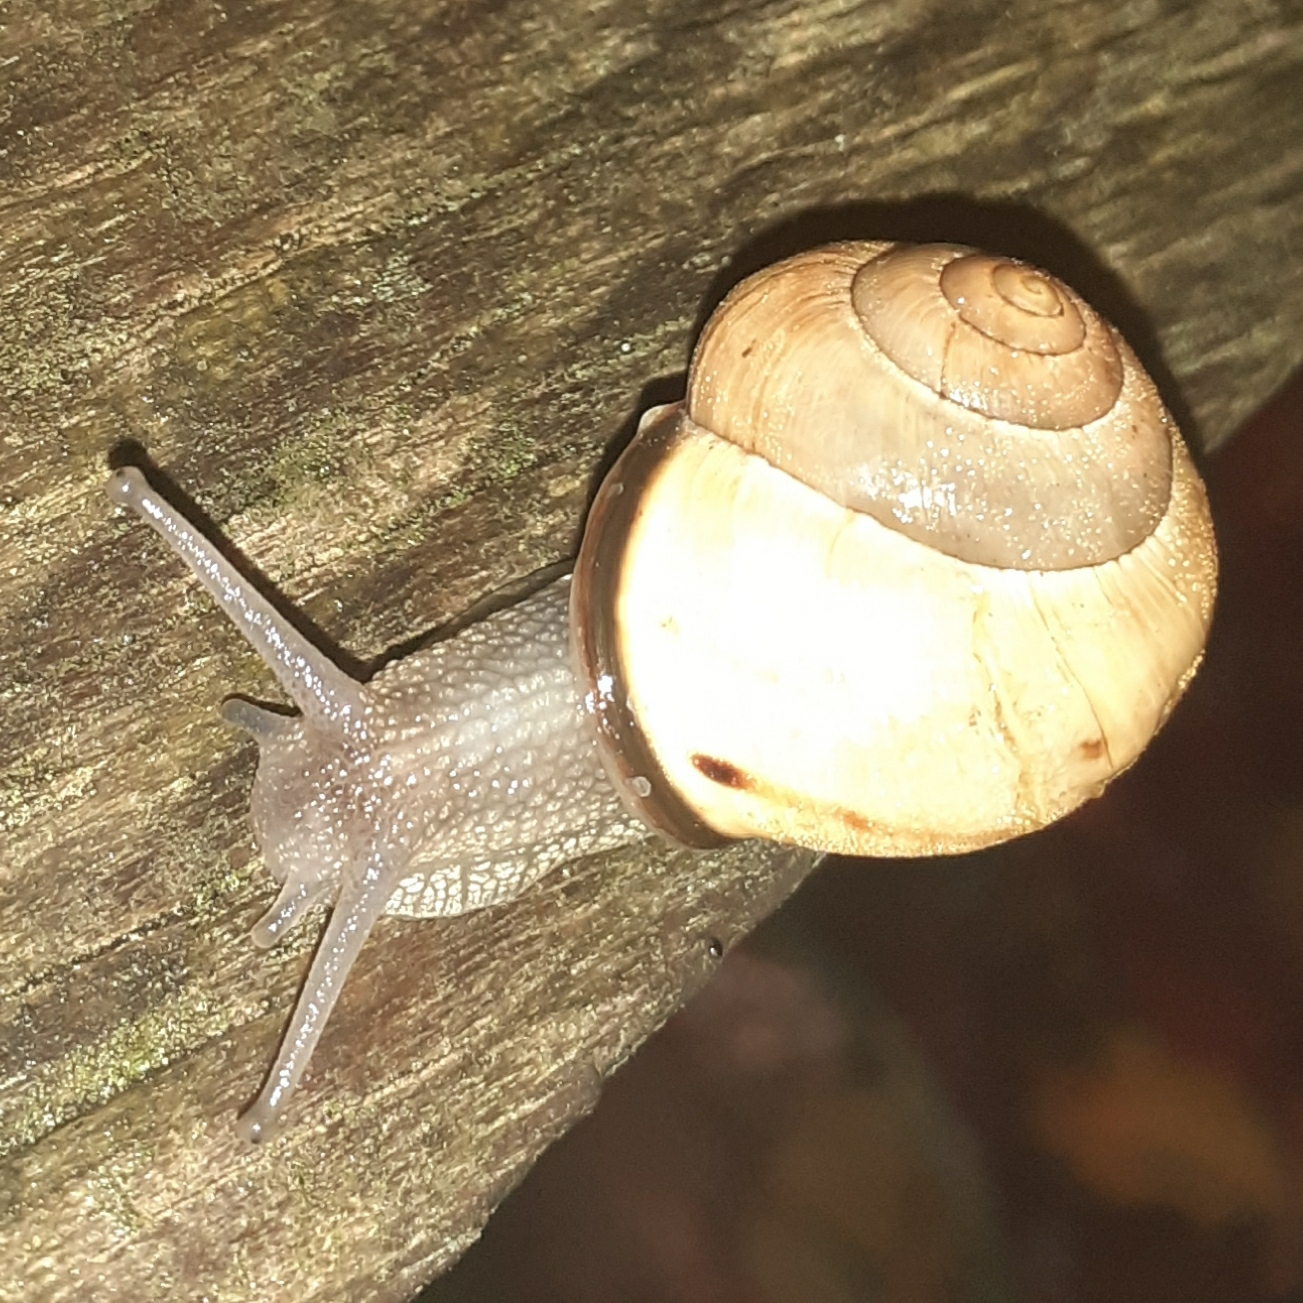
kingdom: Animalia
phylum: Mollusca
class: Gastropoda
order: Stylommatophora
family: Helicidae
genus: Cepaea
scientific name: Cepaea nemoralis
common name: Grovesnail
